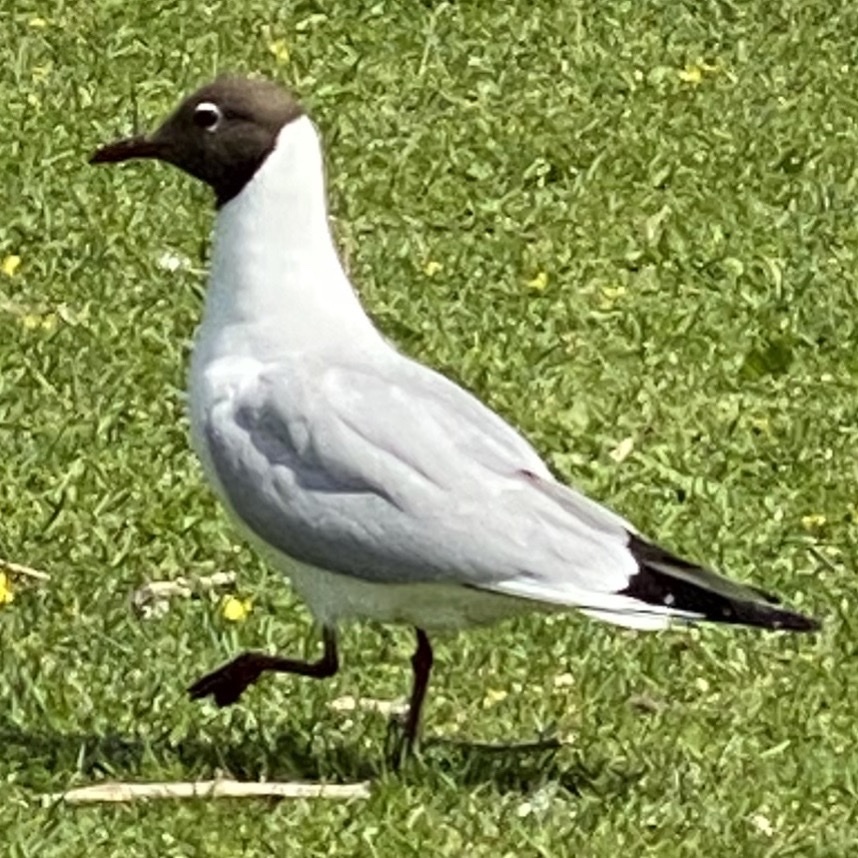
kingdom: Animalia
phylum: Chordata
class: Aves
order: Charadriiformes
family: Laridae
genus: Chroicocephalus
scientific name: Chroicocephalus ridibundus
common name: Black-headed gull
